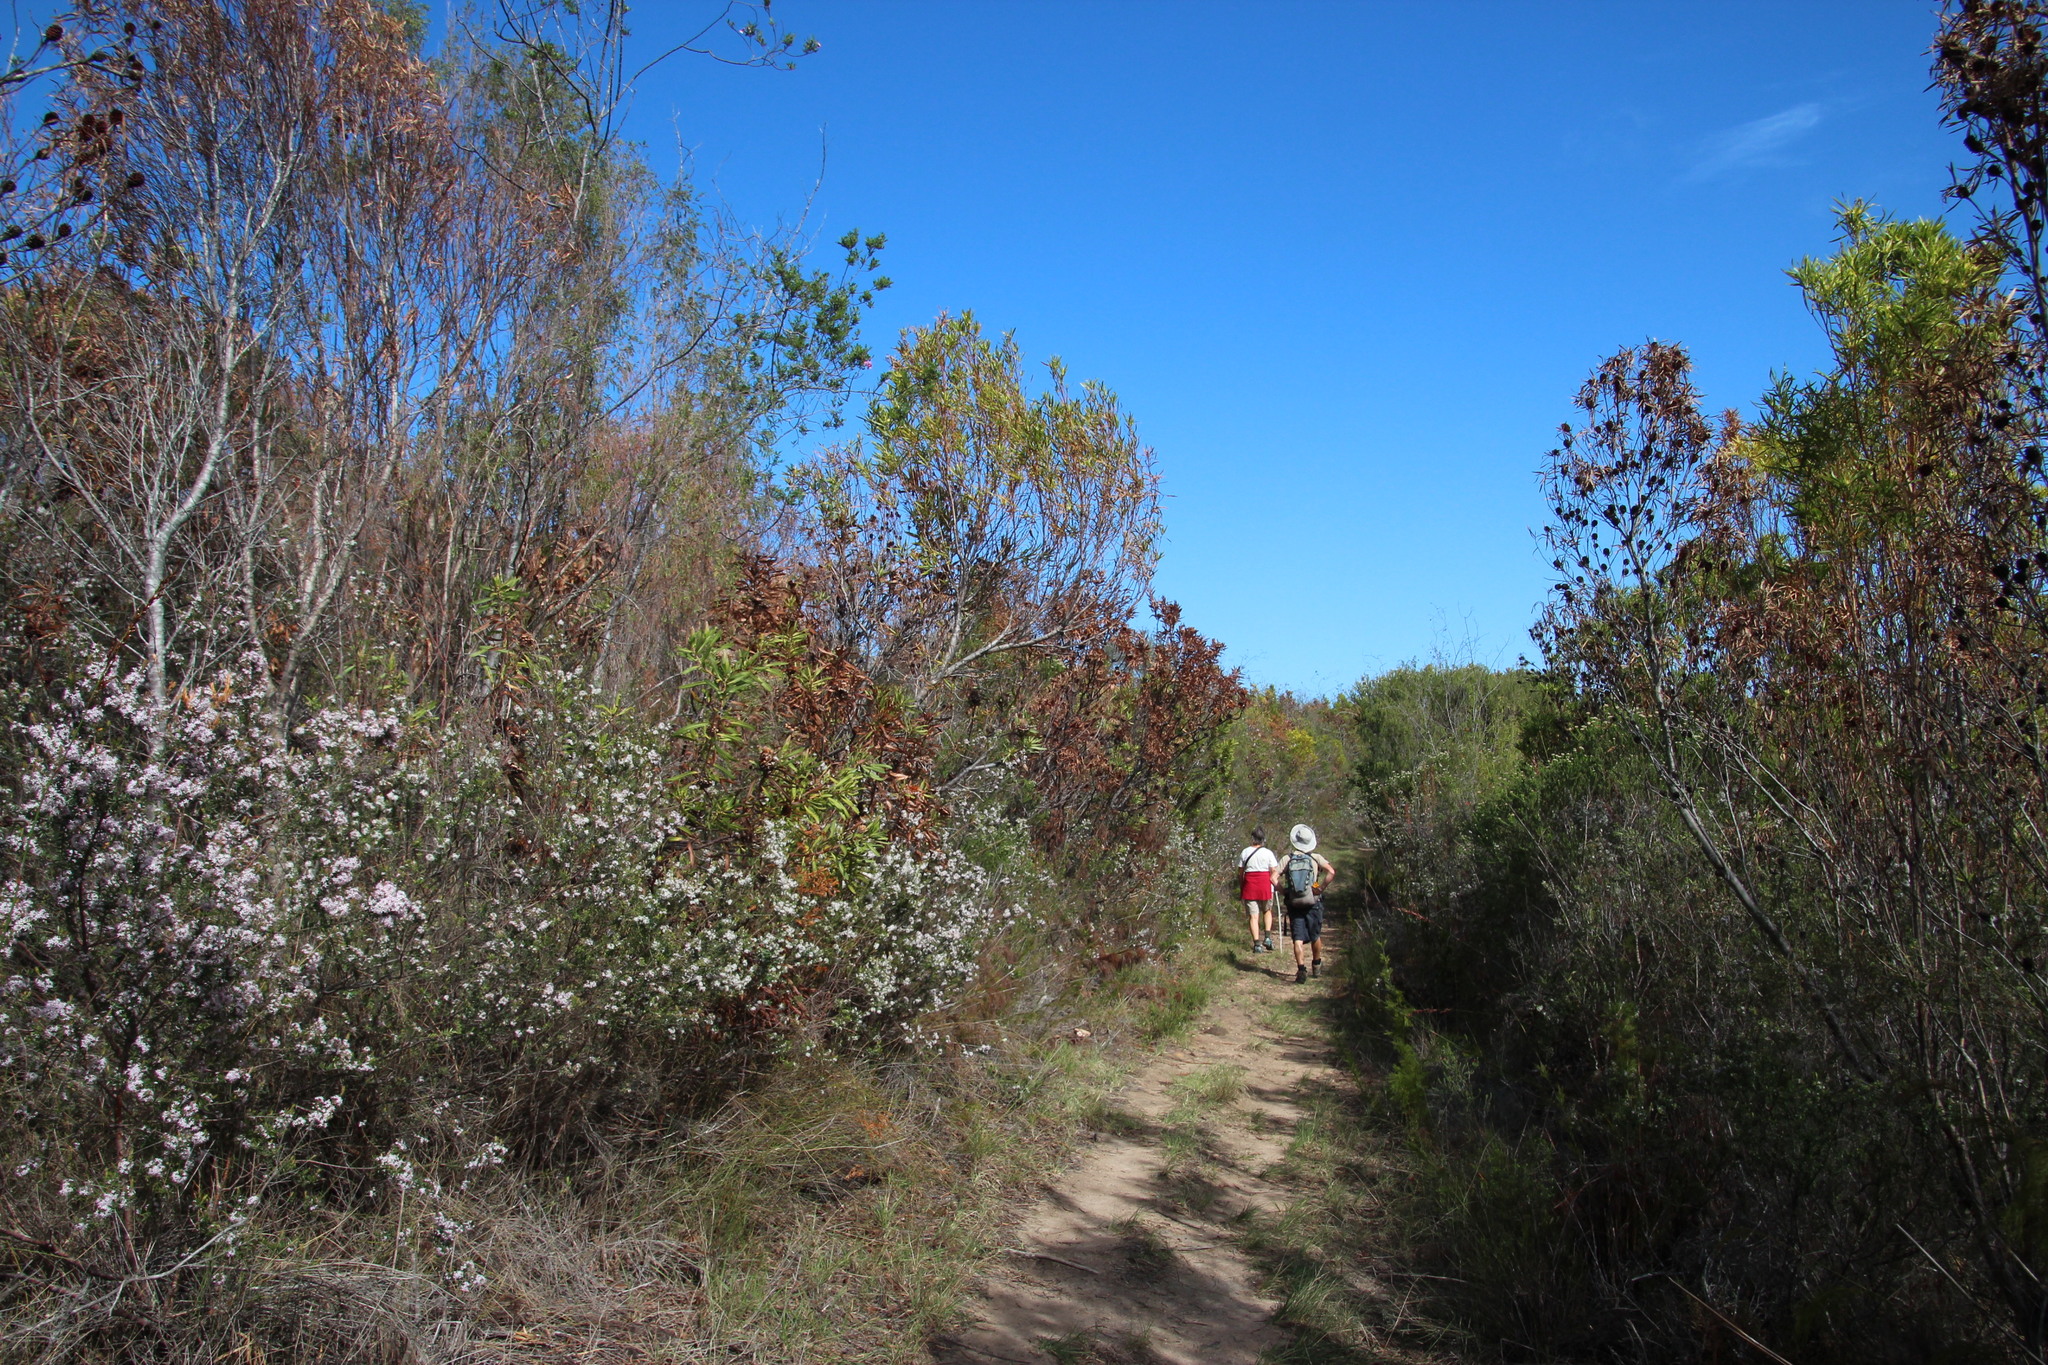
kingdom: Plantae
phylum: Tracheophyta
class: Magnoliopsida
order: Proteales
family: Proteaceae
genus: Leucadendron
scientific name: Leucadendron eucalyptifolium
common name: Gum-leaved conebush
